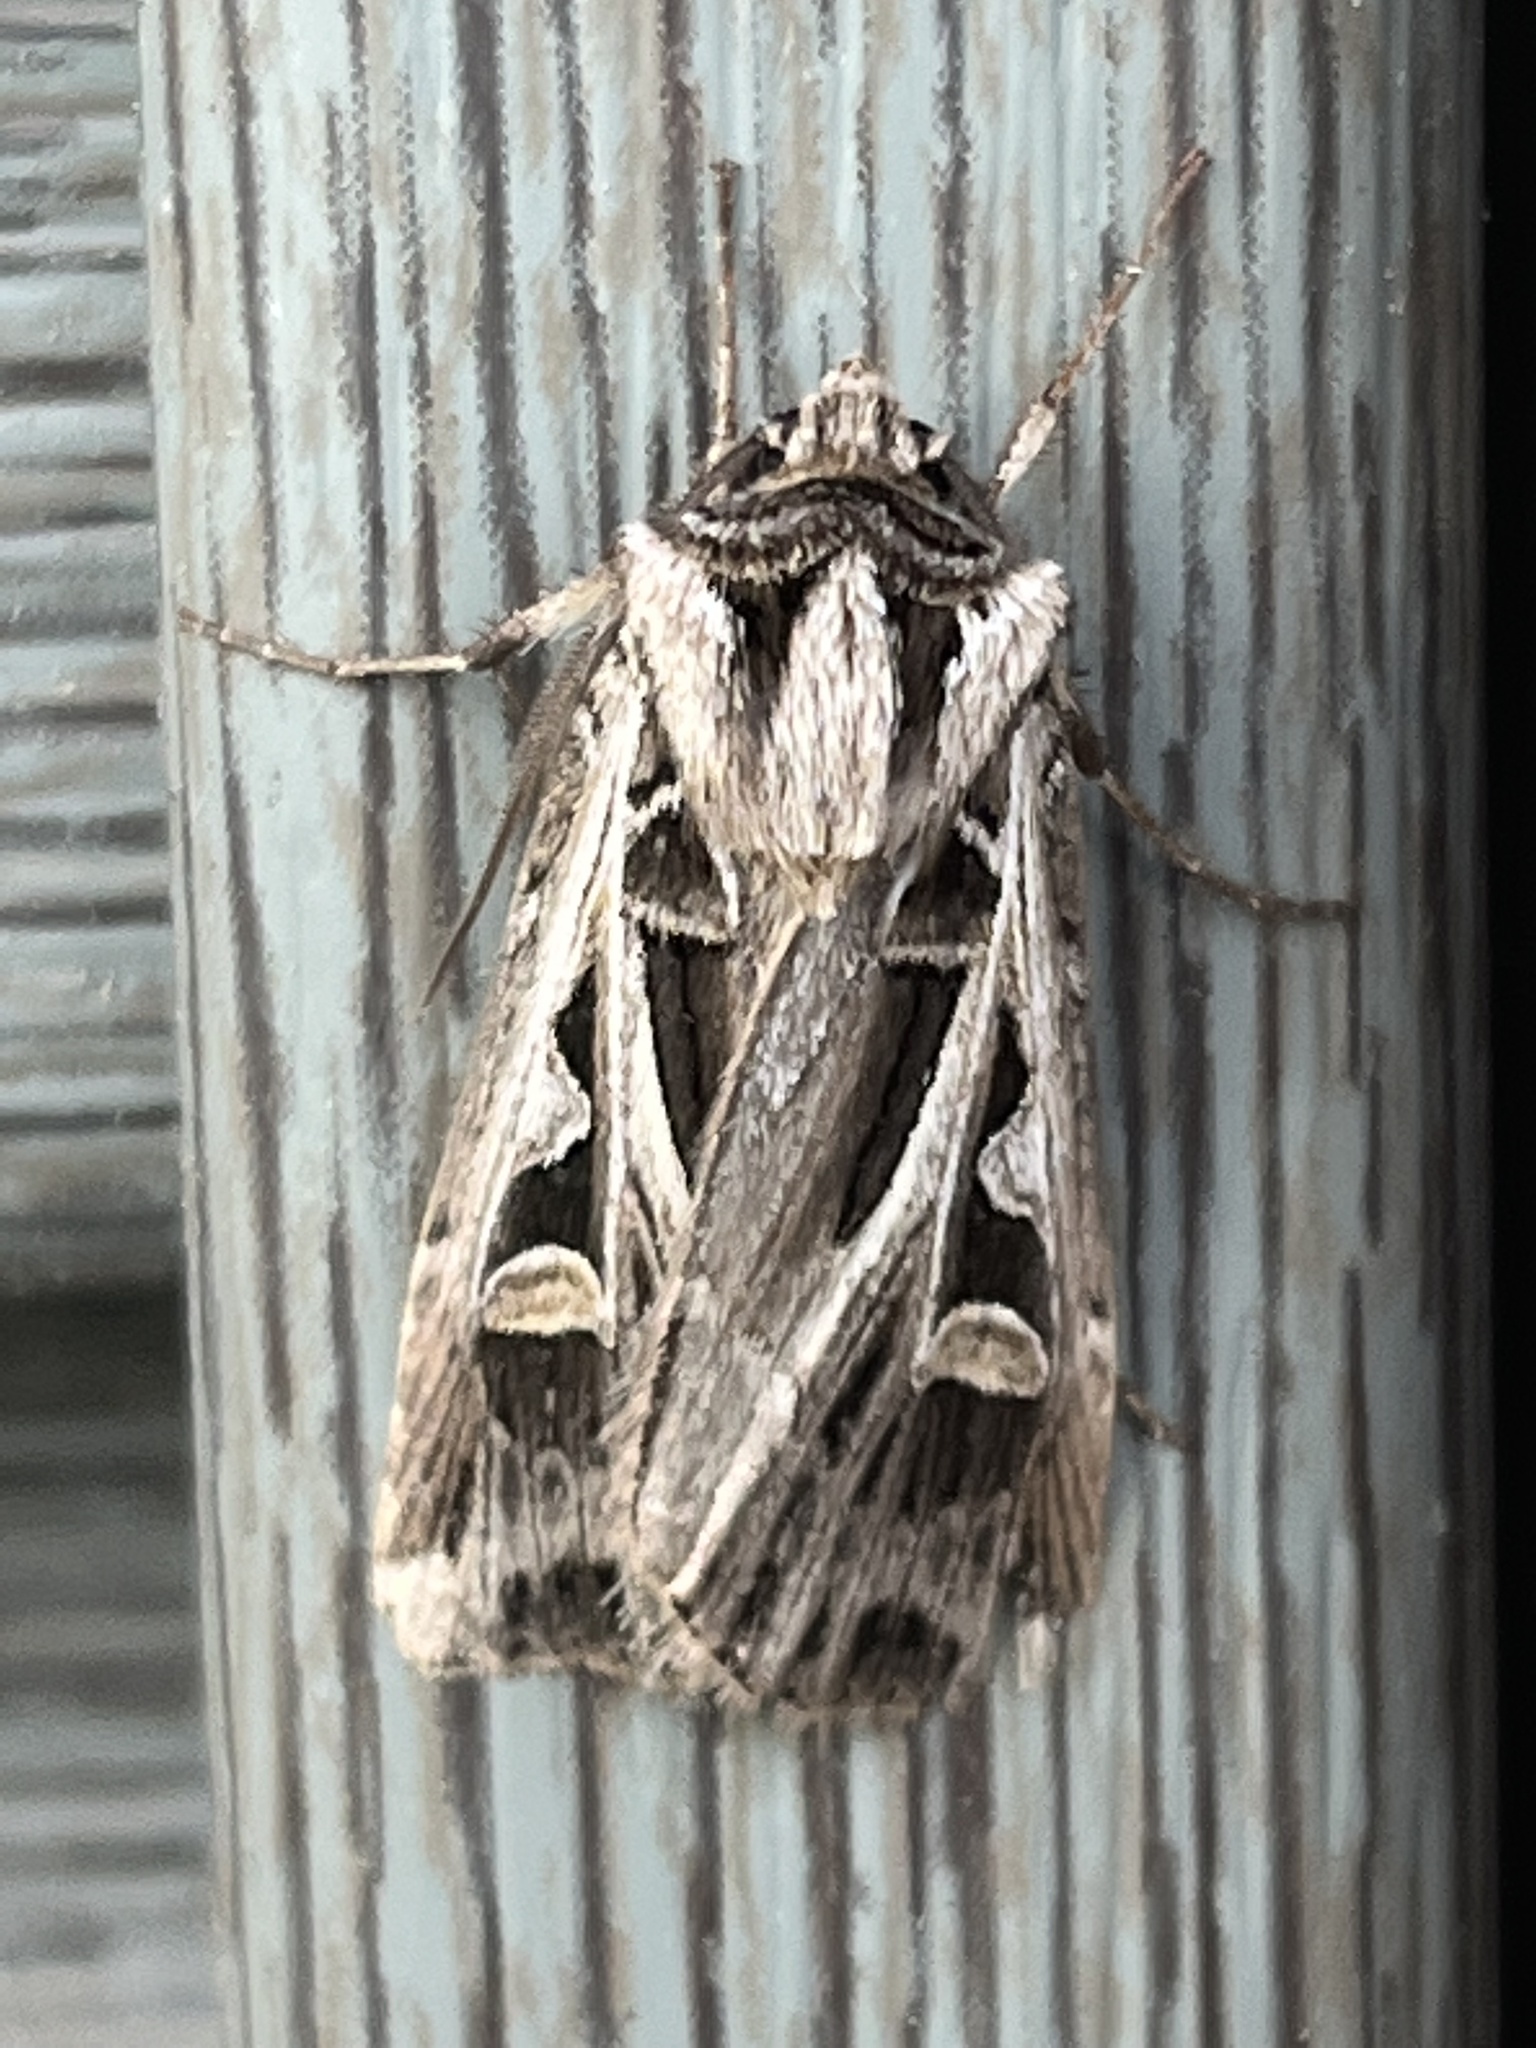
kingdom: Animalia
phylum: Arthropoda
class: Insecta
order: Lepidoptera
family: Noctuidae
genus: Feltia
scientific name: Feltia jaculifera
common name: Dingy cutworm moth
